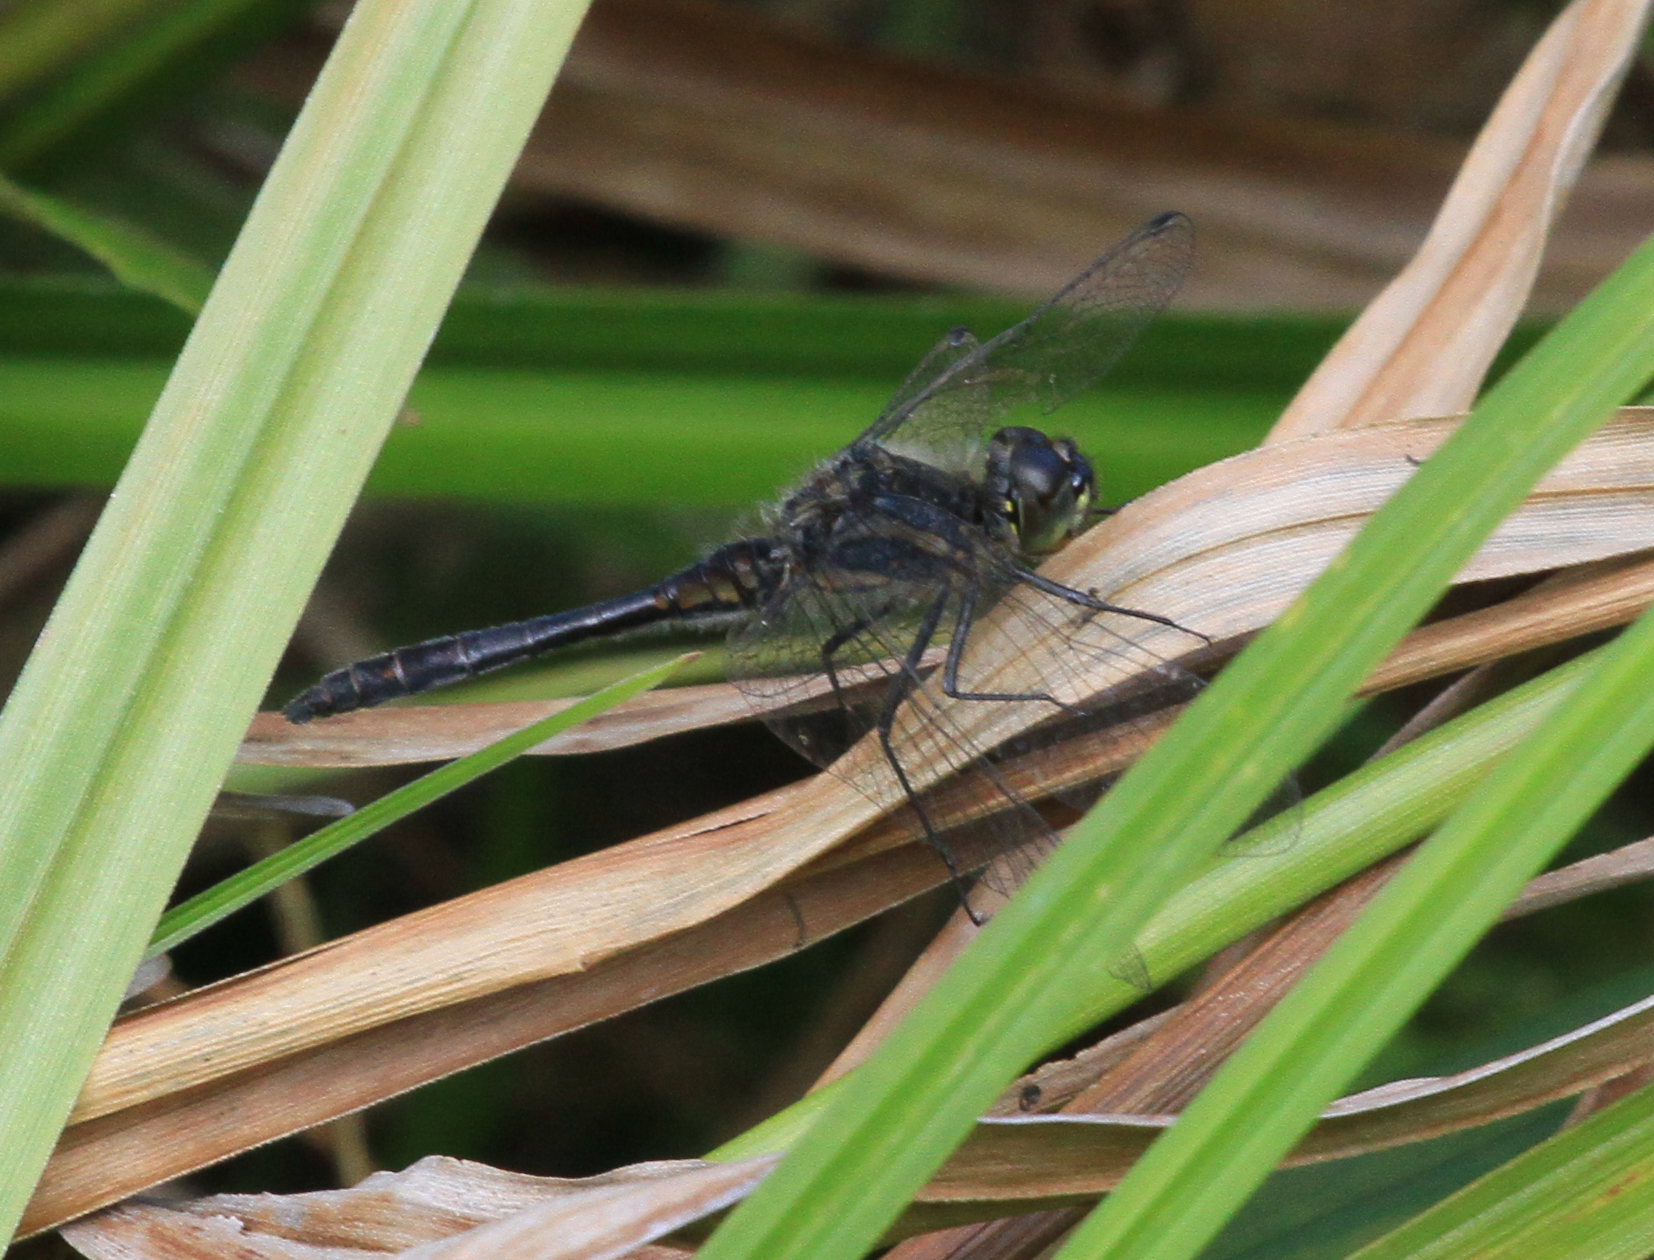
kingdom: Animalia
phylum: Arthropoda
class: Insecta
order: Odonata
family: Libellulidae
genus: Sympetrum
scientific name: Sympetrum danae
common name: Black darter
